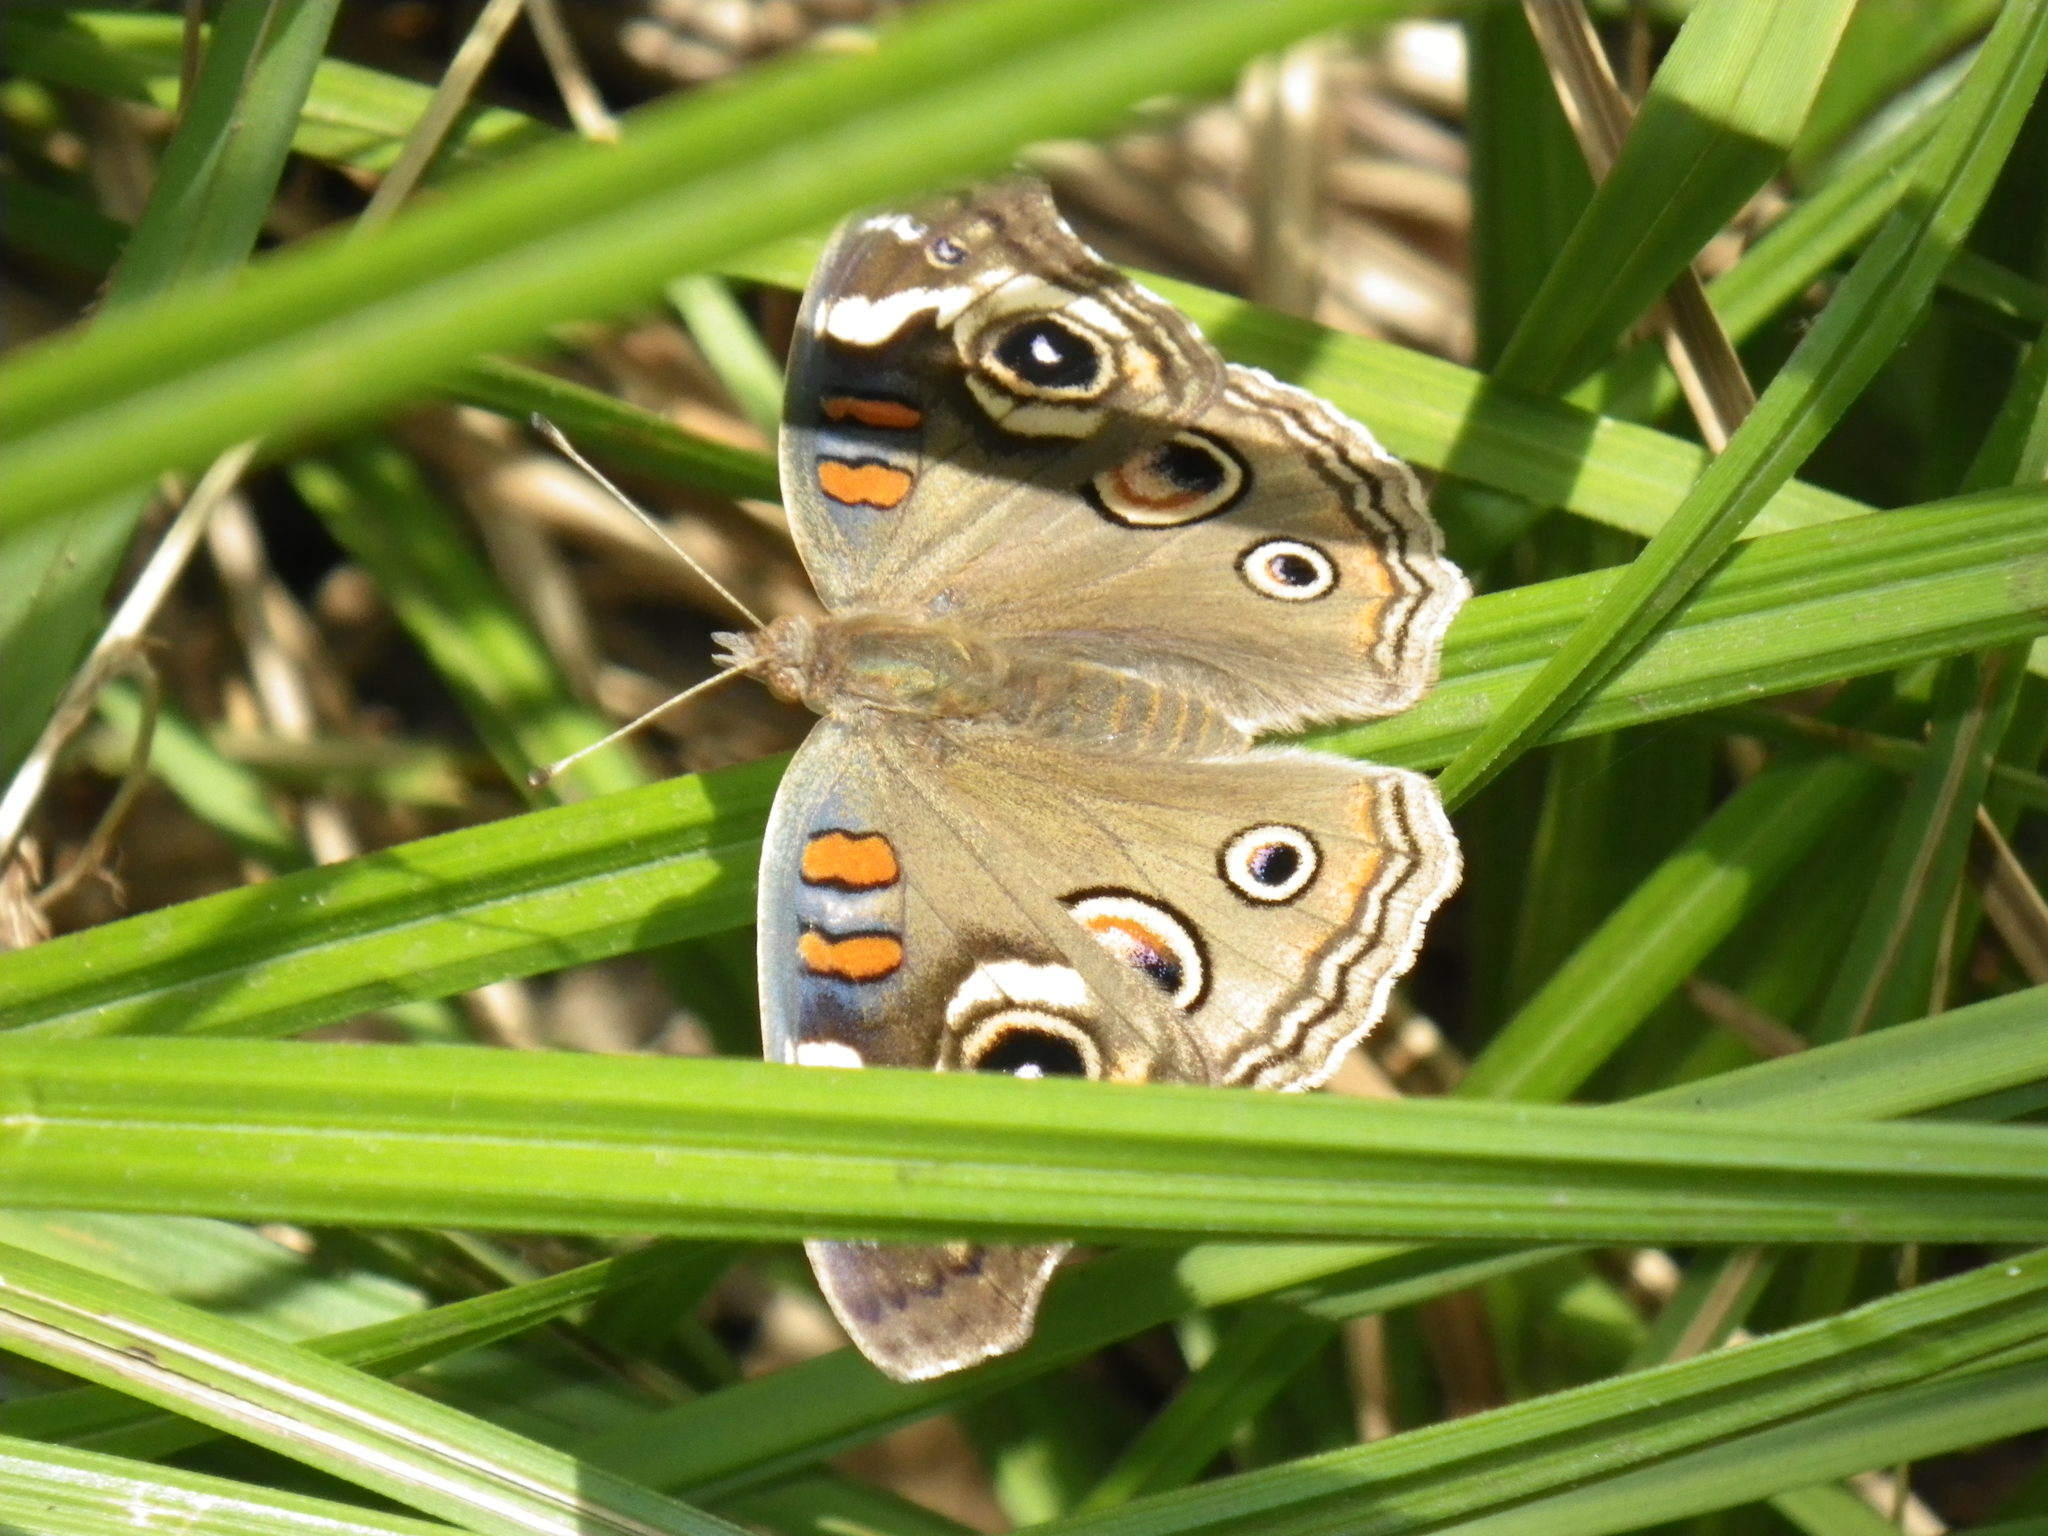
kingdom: Animalia
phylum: Arthropoda
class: Insecta
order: Lepidoptera
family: Nymphalidae
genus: Junonia
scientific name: Junonia grisea
